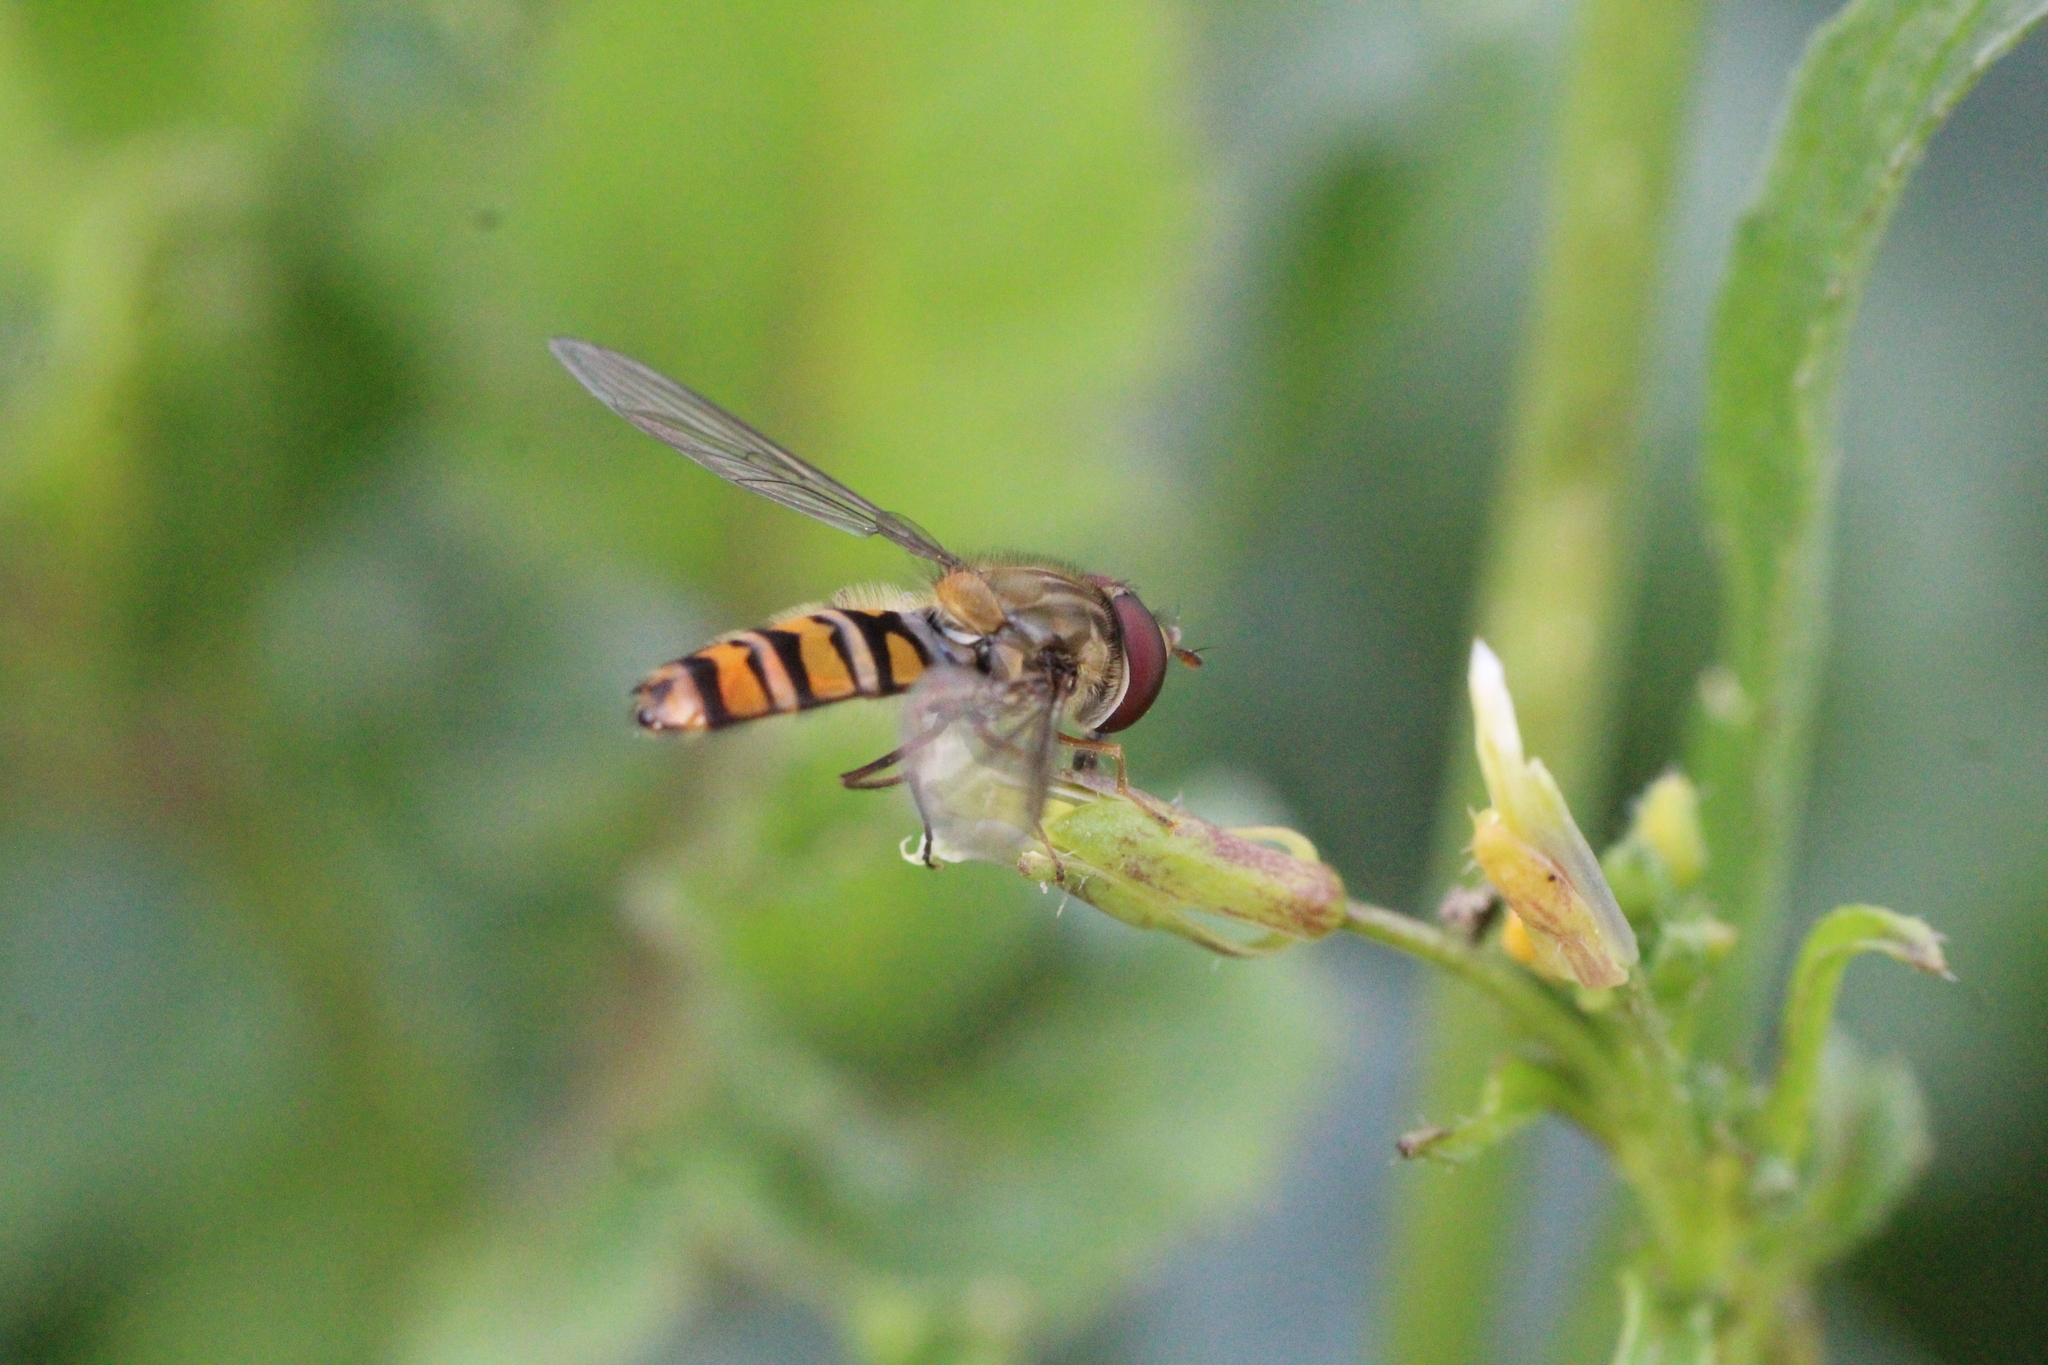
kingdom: Animalia
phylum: Arthropoda
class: Insecta
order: Diptera
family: Syrphidae
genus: Episyrphus
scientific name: Episyrphus balteatus
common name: Marmalade hoverfly
